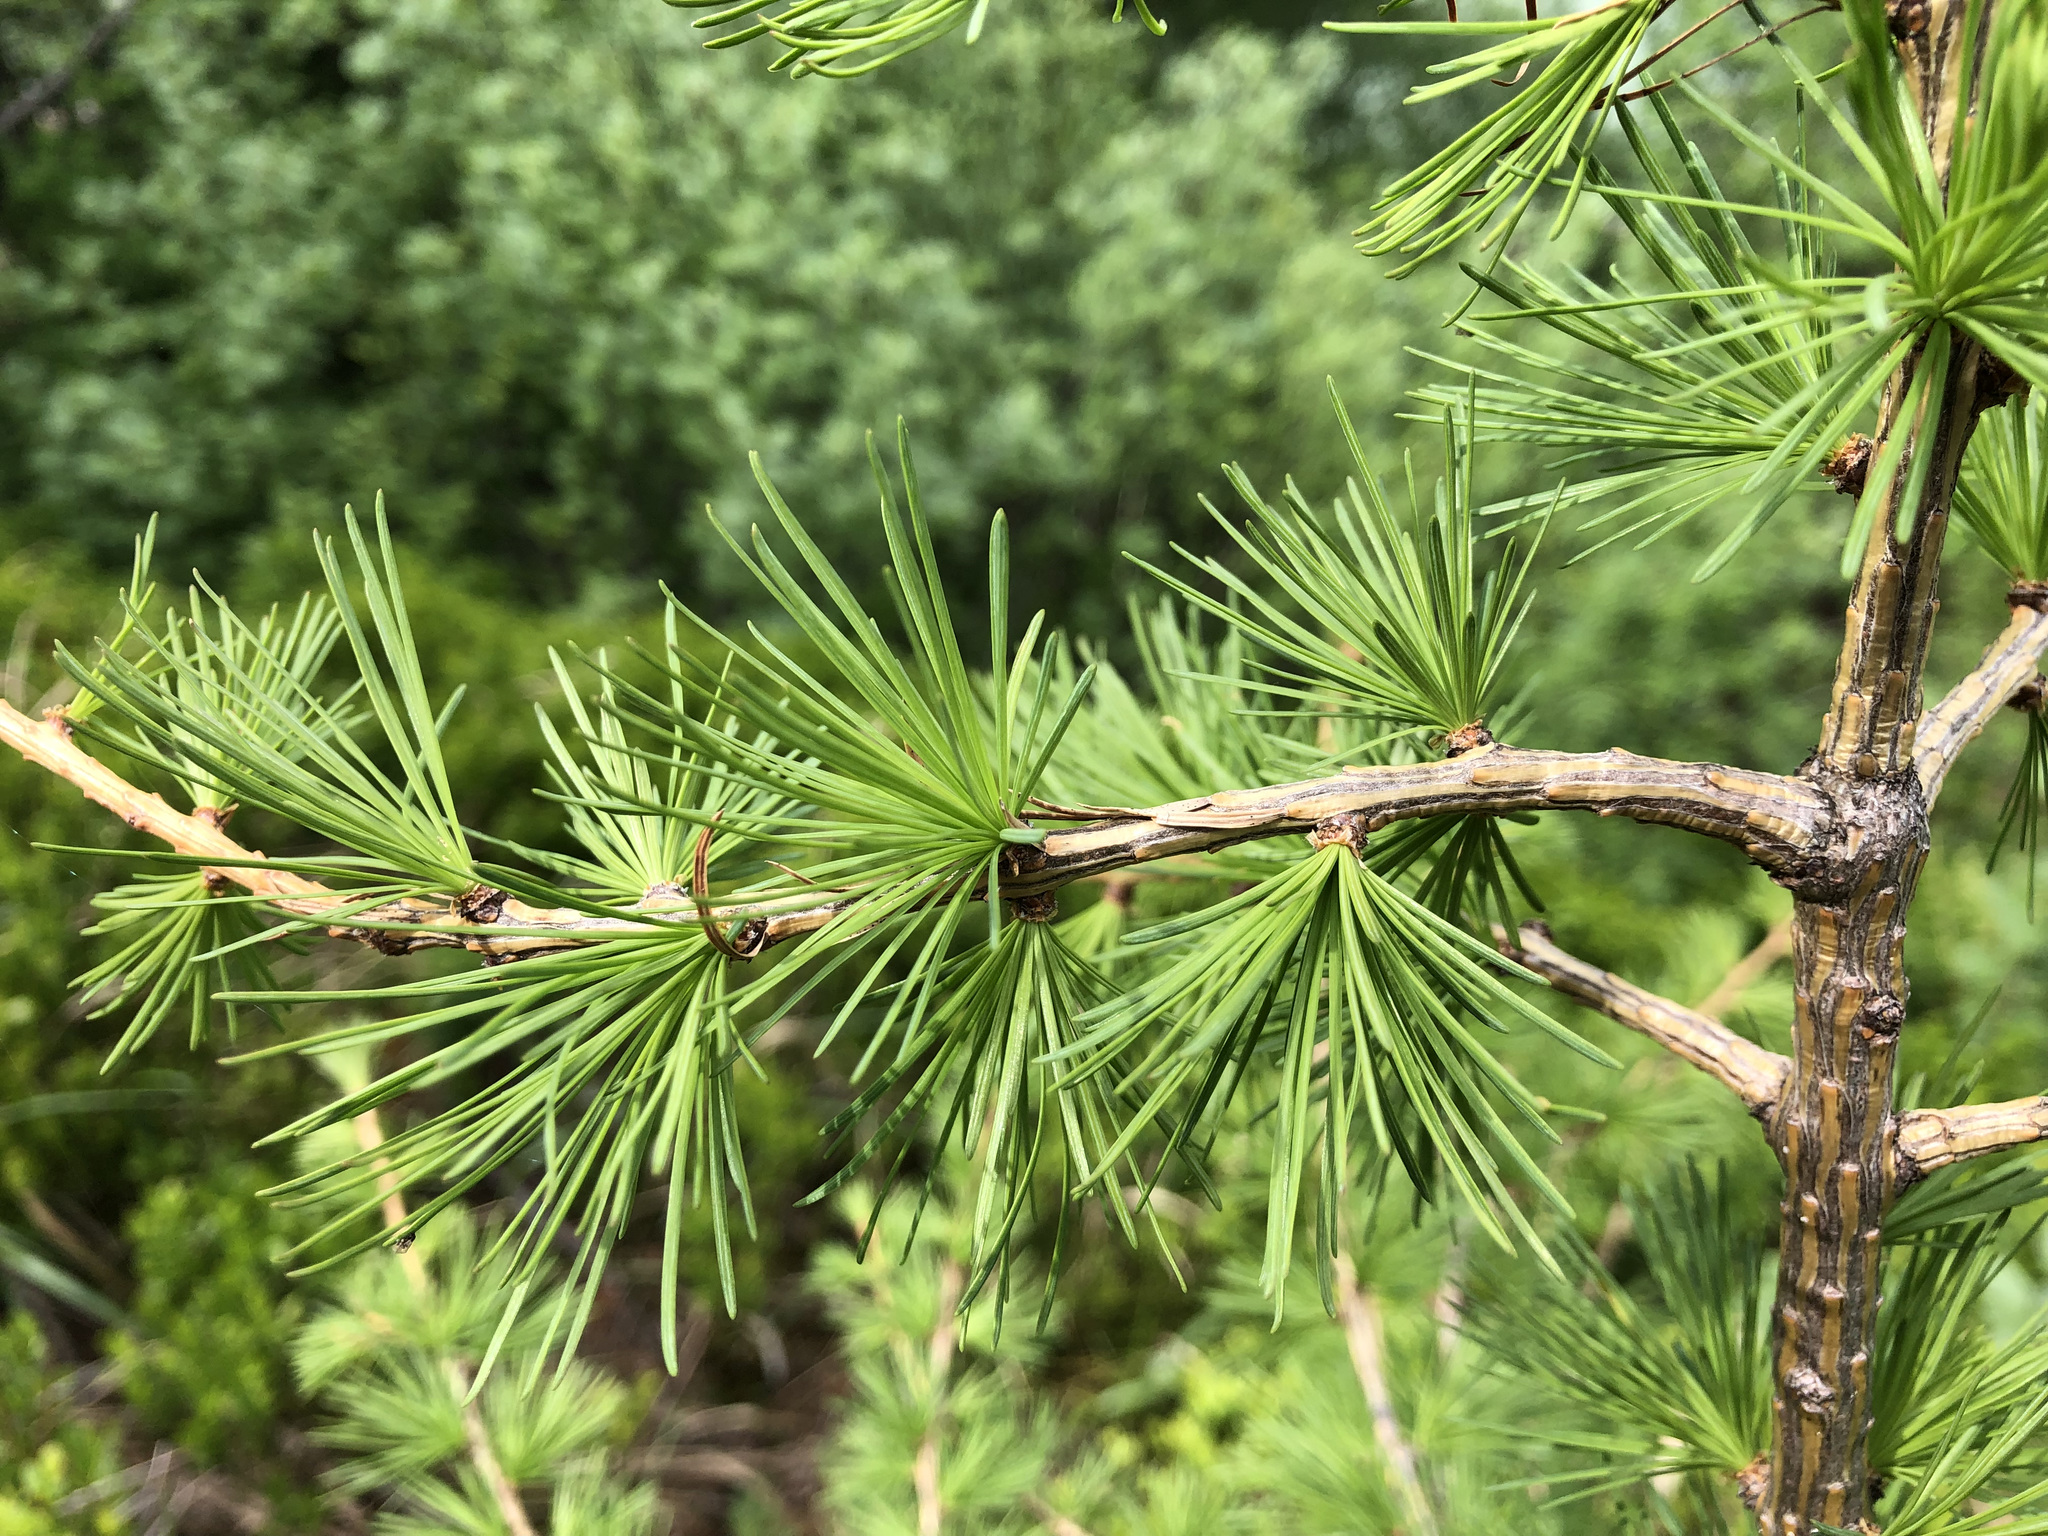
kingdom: Plantae
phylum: Tracheophyta
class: Pinopsida
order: Pinales
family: Pinaceae
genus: Larix
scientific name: Larix decidua
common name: European larch
